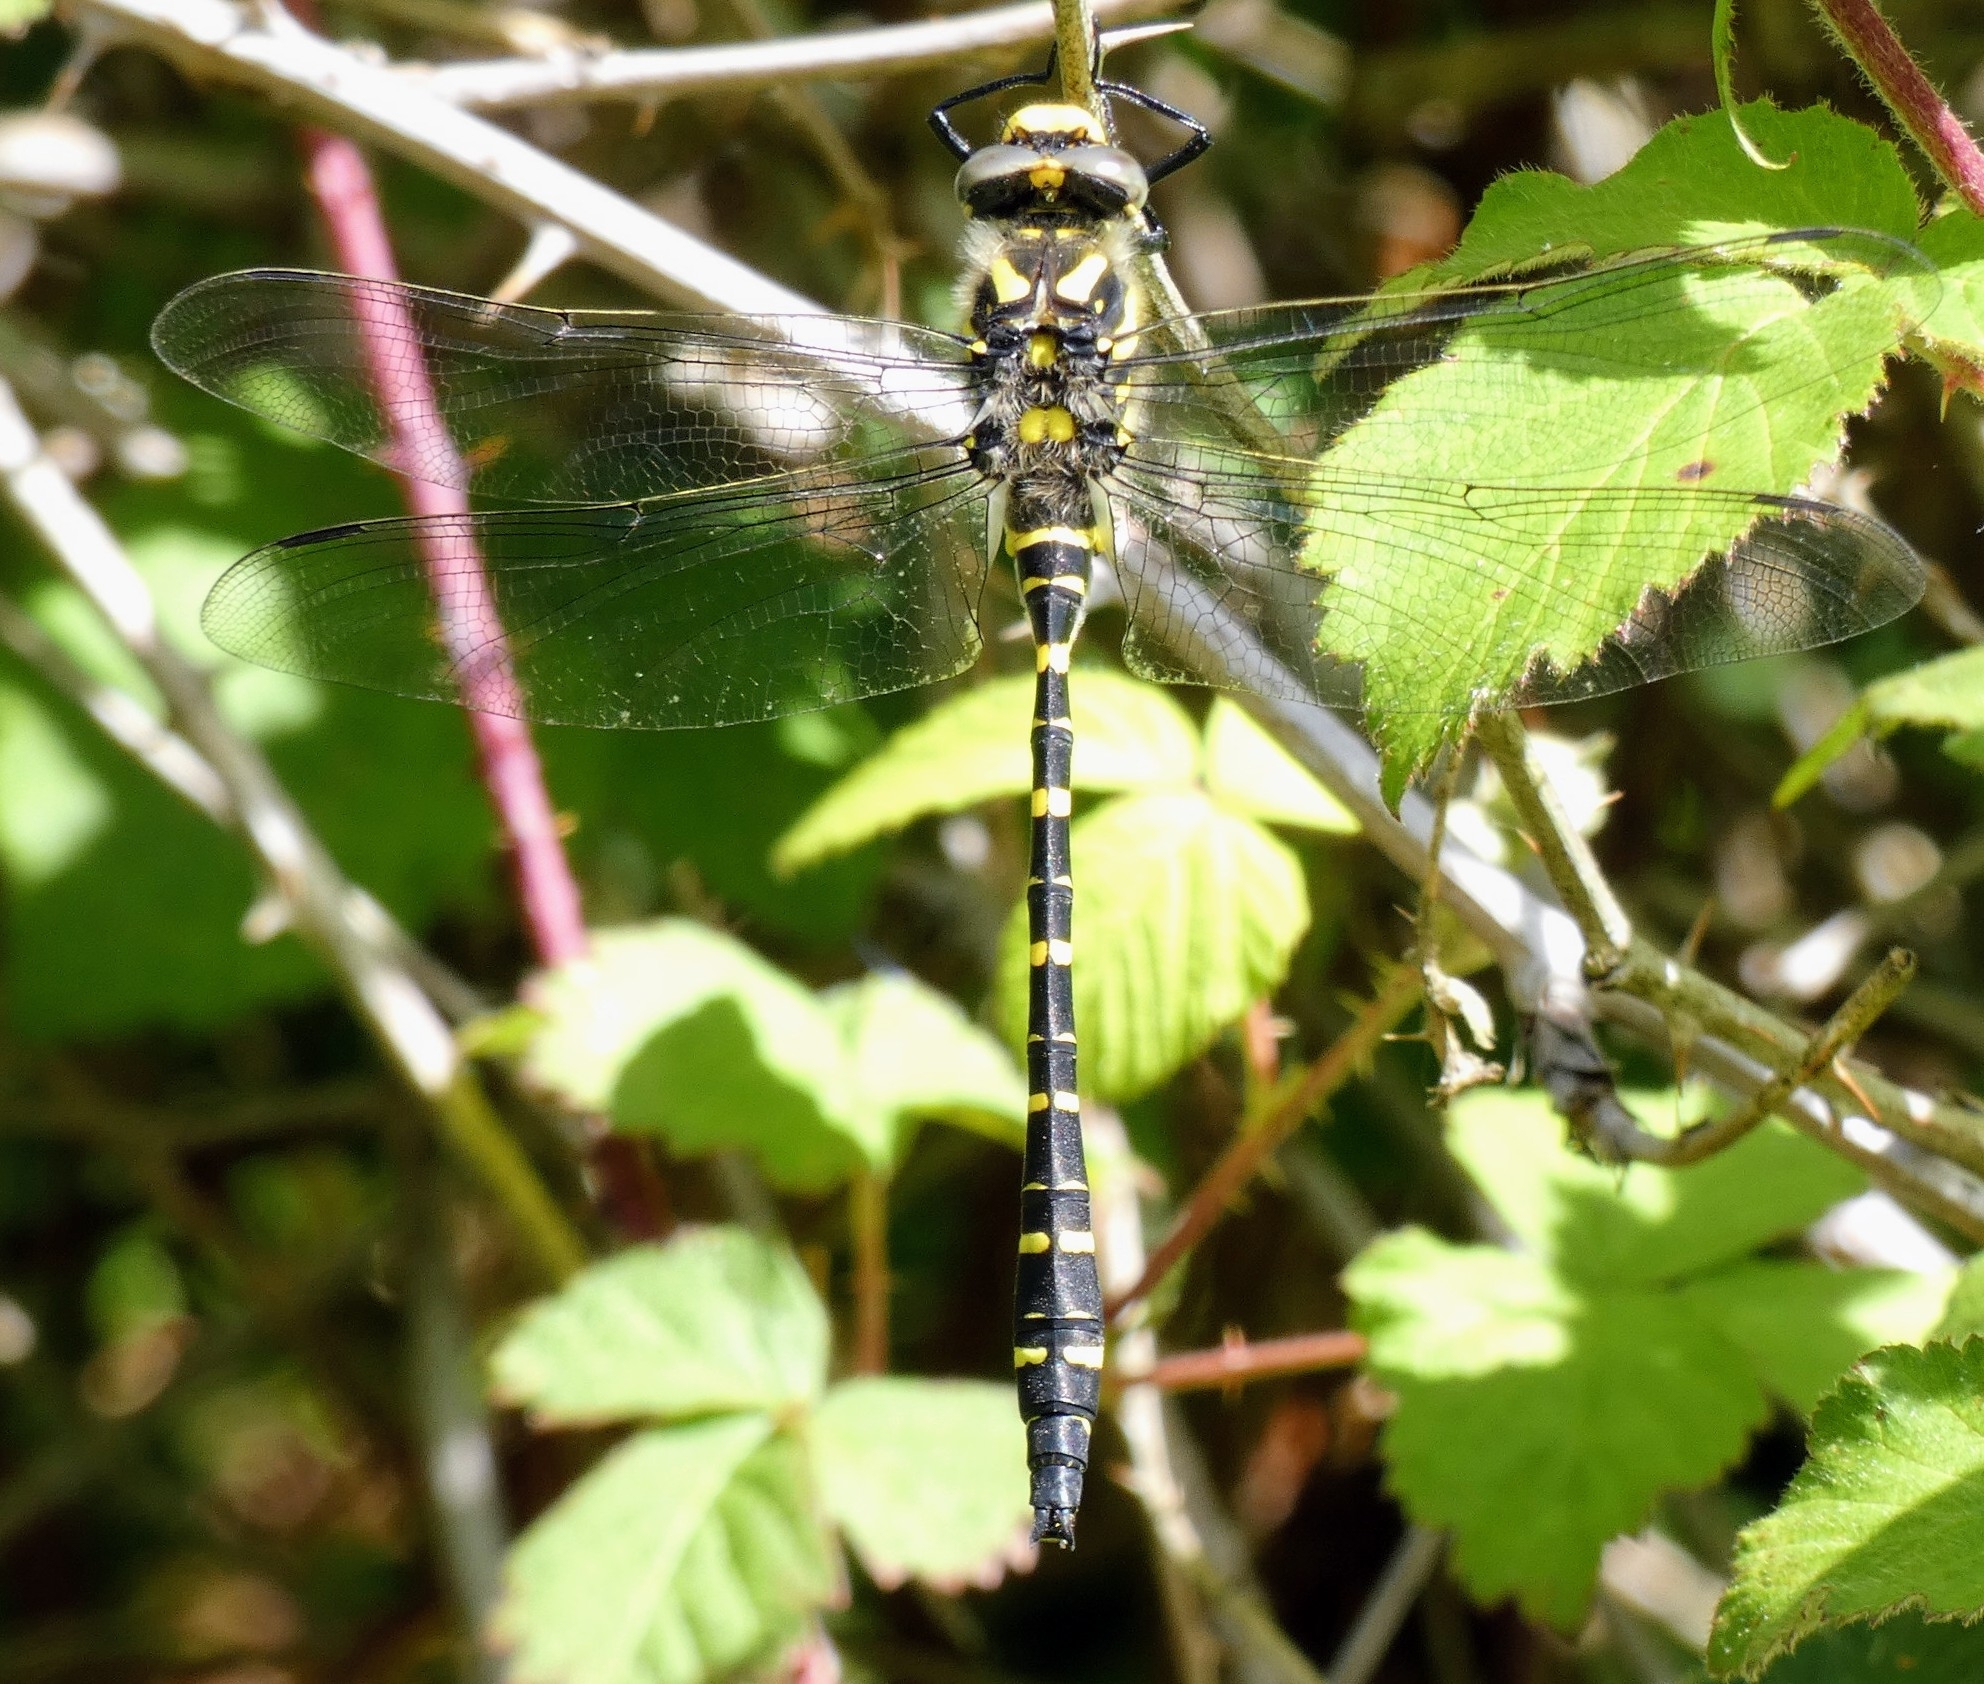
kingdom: Animalia
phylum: Arthropoda
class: Insecta
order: Odonata
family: Cordulegastridae
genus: Cordulegaster
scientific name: Cordulegaster boltonii
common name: Golden-ringed dragonfly
